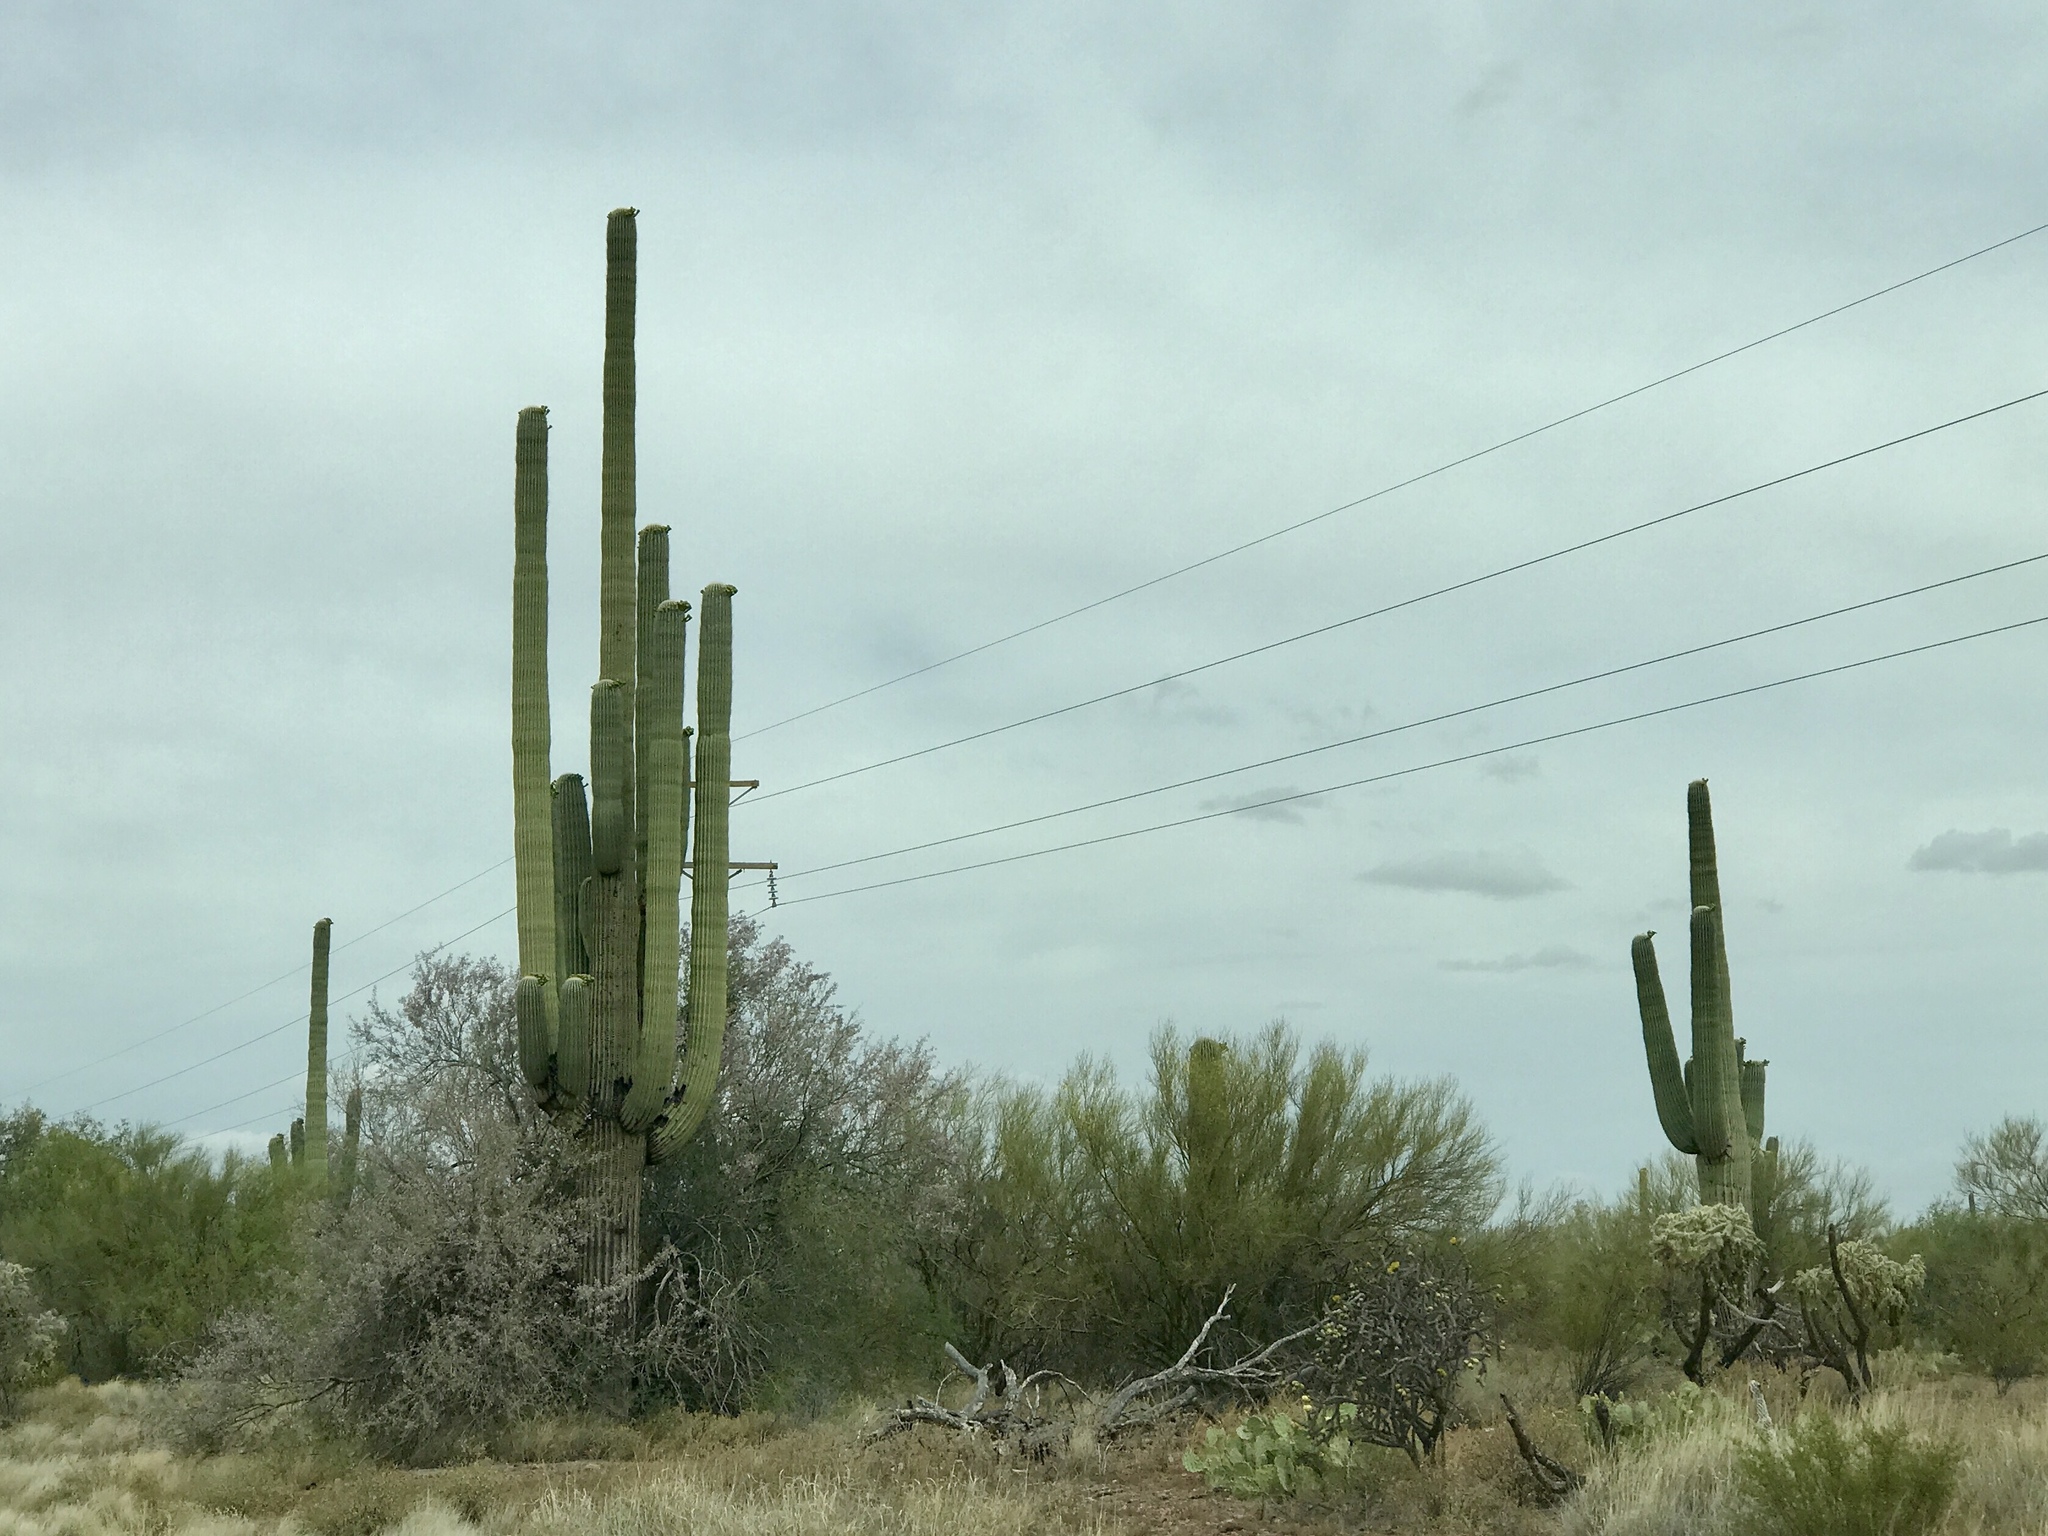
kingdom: Plantae
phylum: Tracheophyta
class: Magnoliopsida
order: Caryophyllales
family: Cactaceae
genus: Carnegiea
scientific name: Carnegiea gigantea
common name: Saguaro
